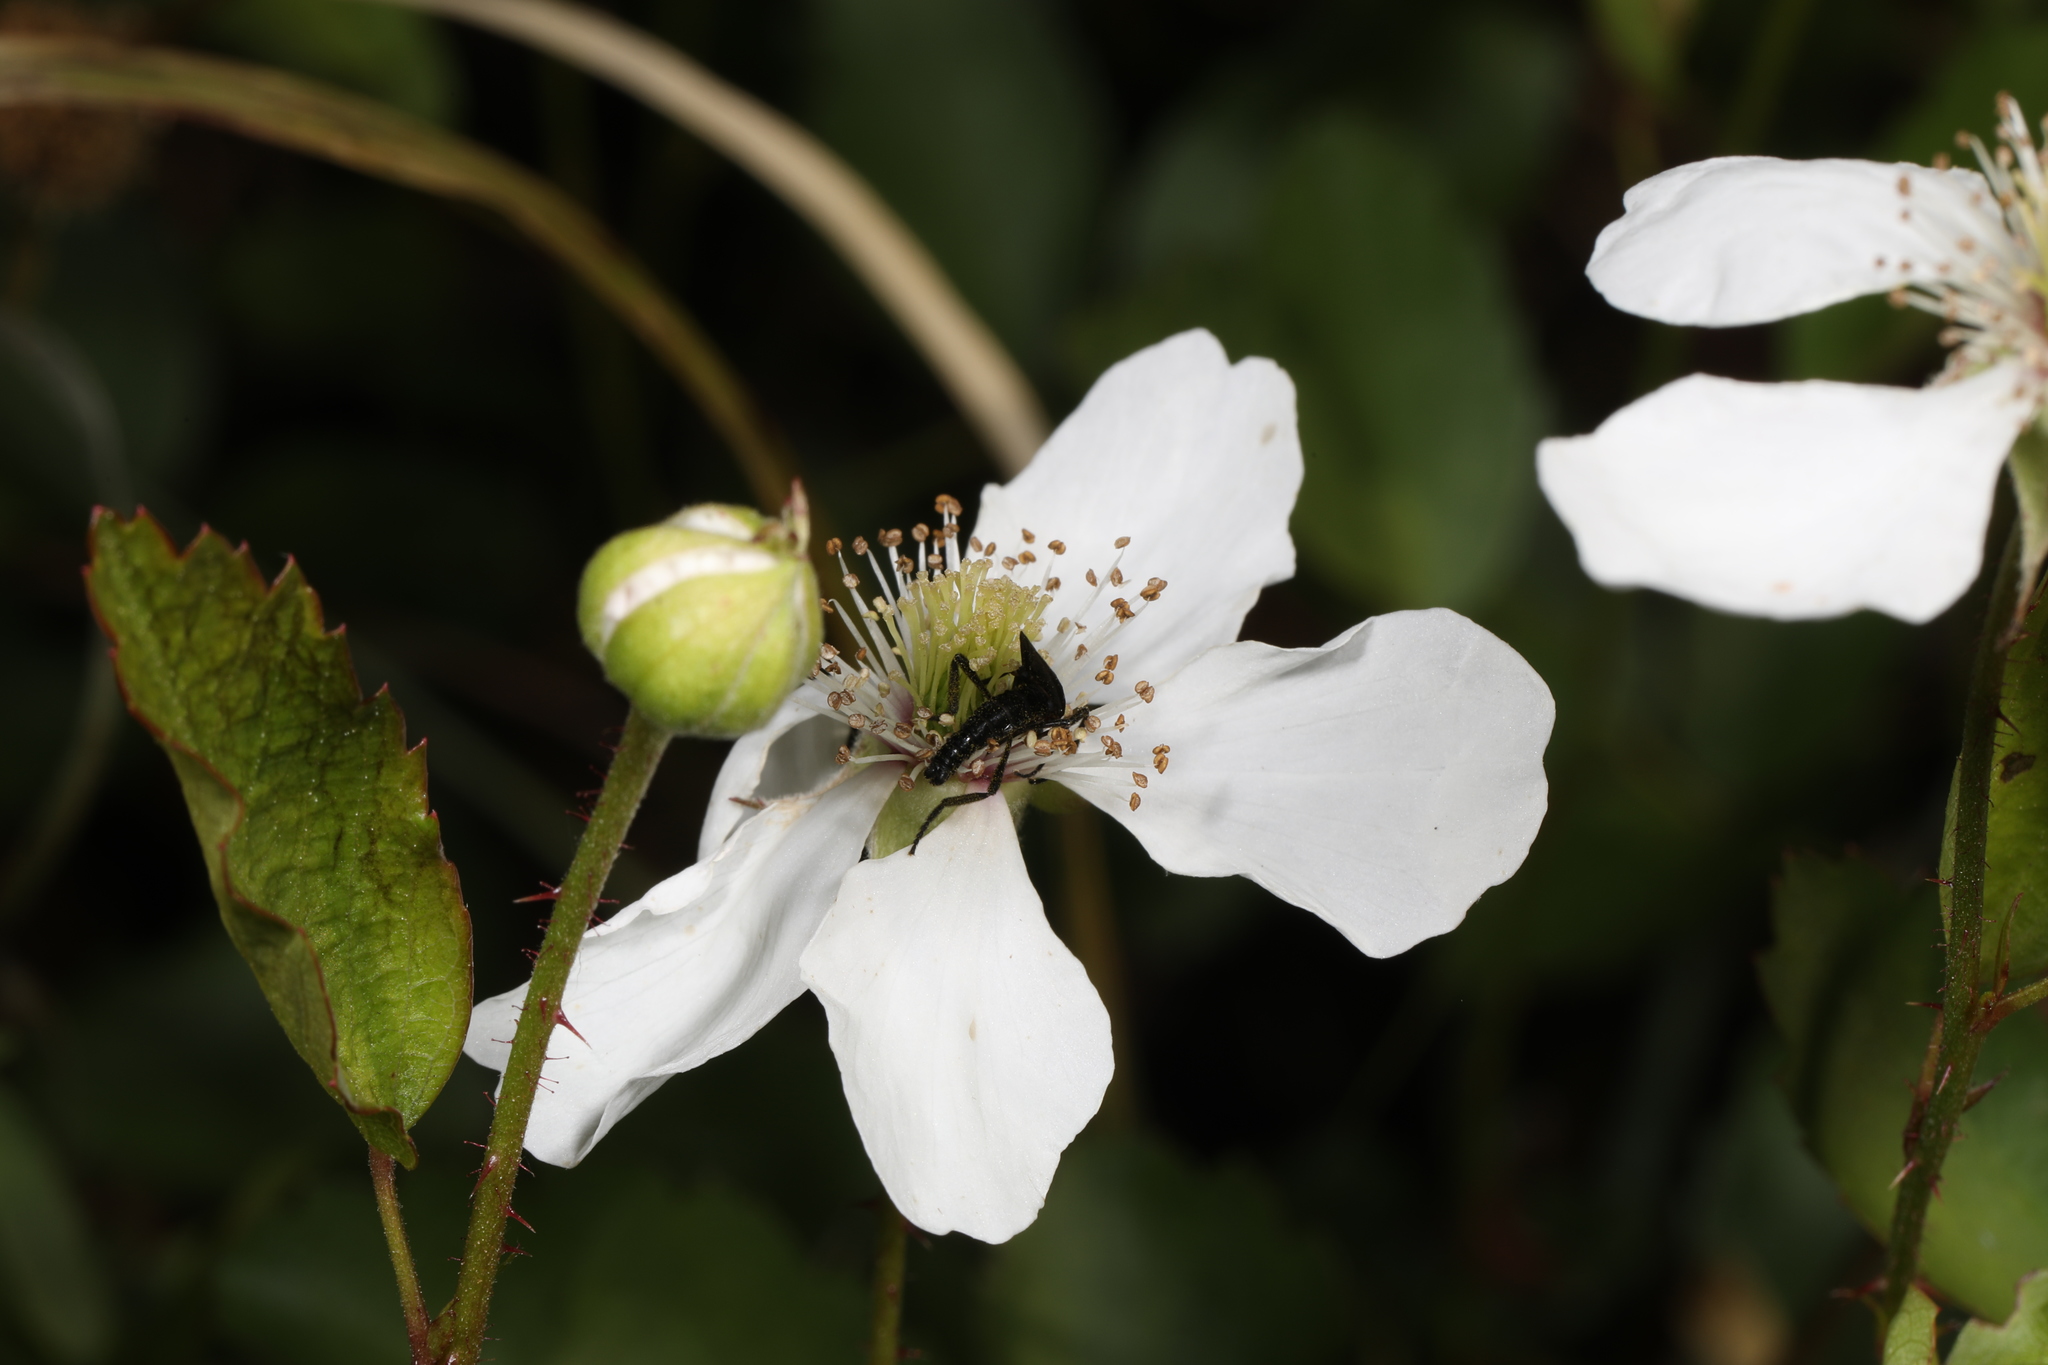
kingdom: Plantae
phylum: Tracheophyta
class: Magnoliopsida
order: Rosales
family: Rosaceae
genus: Rubus
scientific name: Rubus trivialis
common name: Southern dewberry
